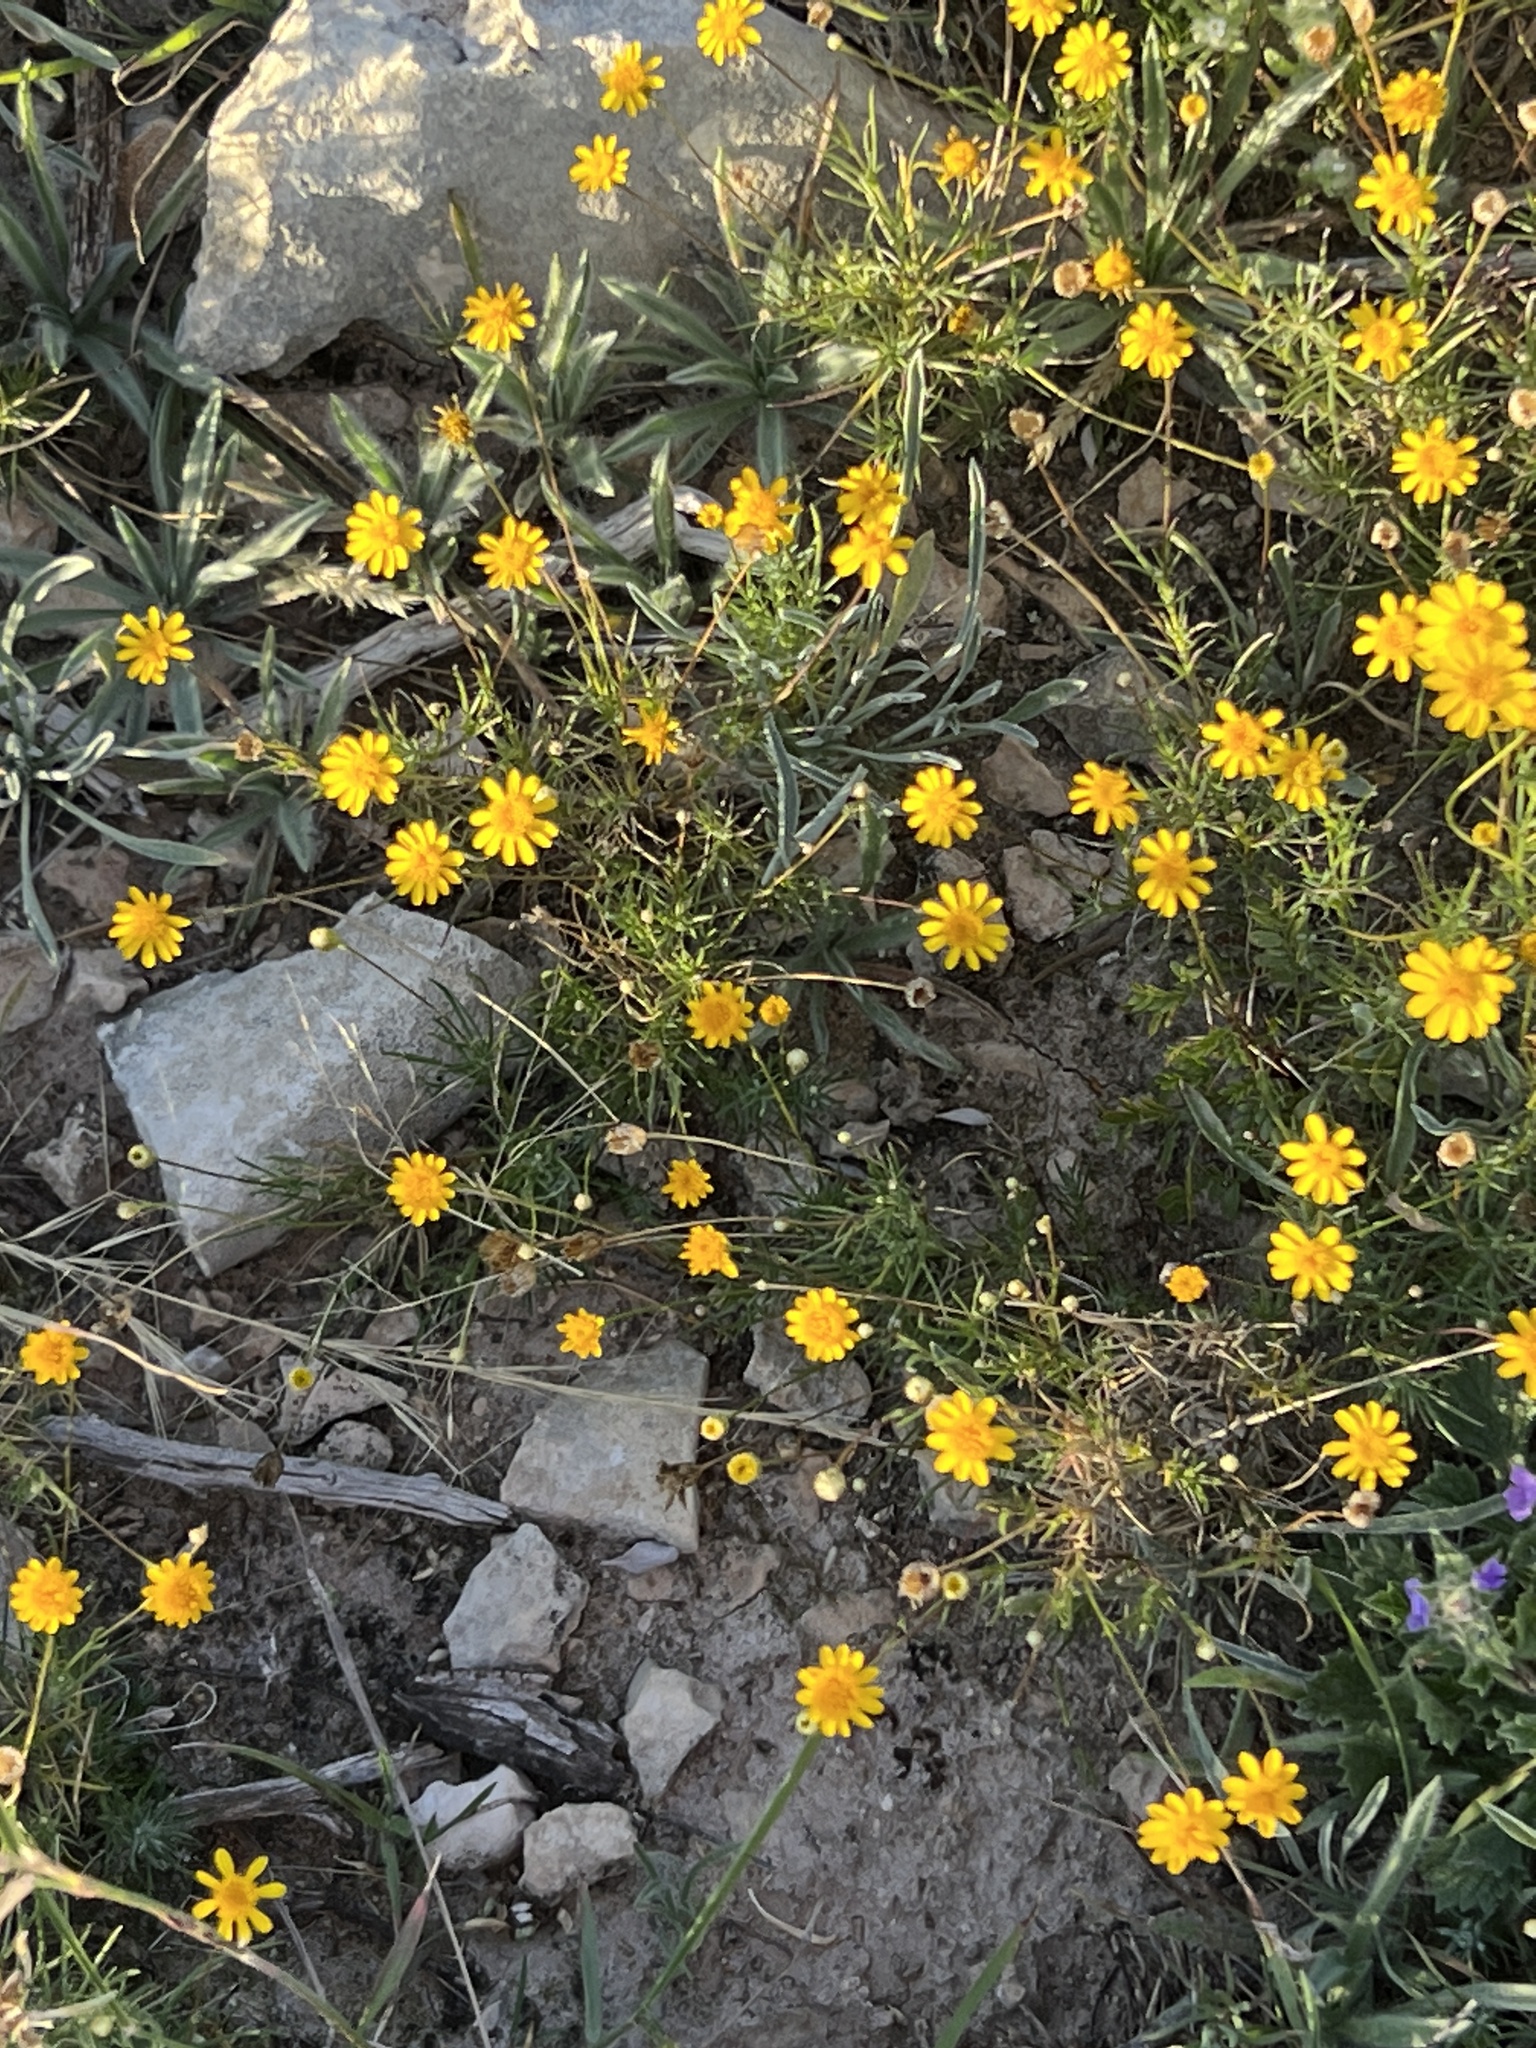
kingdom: Plantae
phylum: Tracheophyta
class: Magnoliopsida
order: Asterales
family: Asteraceae
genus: Thymophylla
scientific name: Thymophylla pentachaeta
